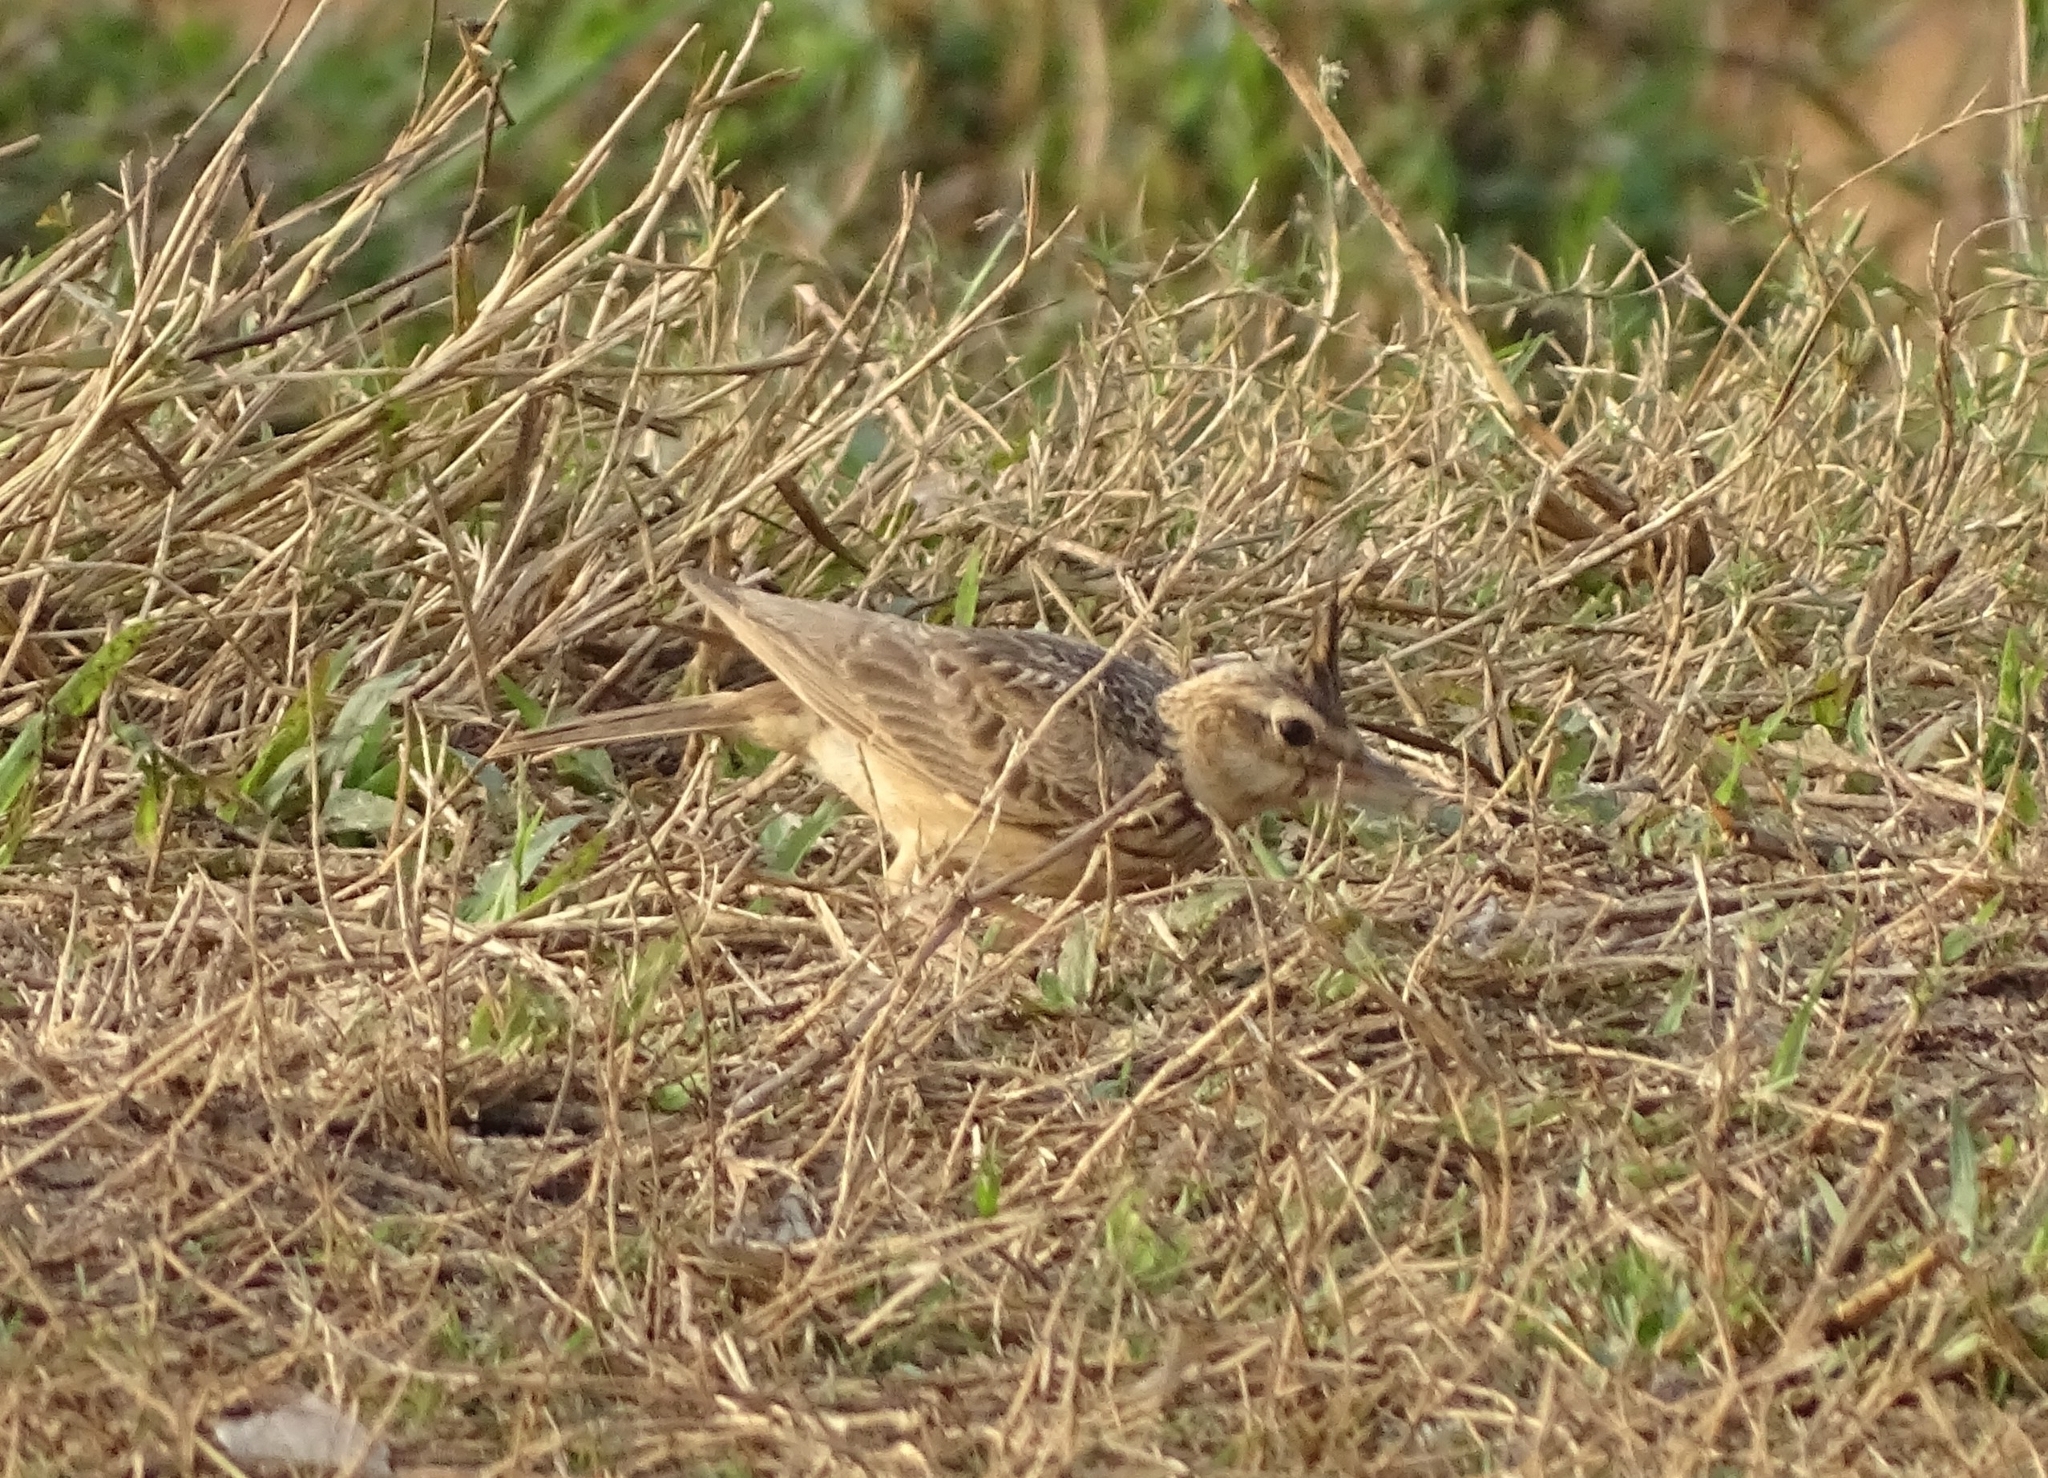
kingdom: Animalia
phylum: Chordata
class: Aves
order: Passeriformes
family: Alaudidae
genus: Galerida
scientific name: Galerida malabarica
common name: Malabar lark
